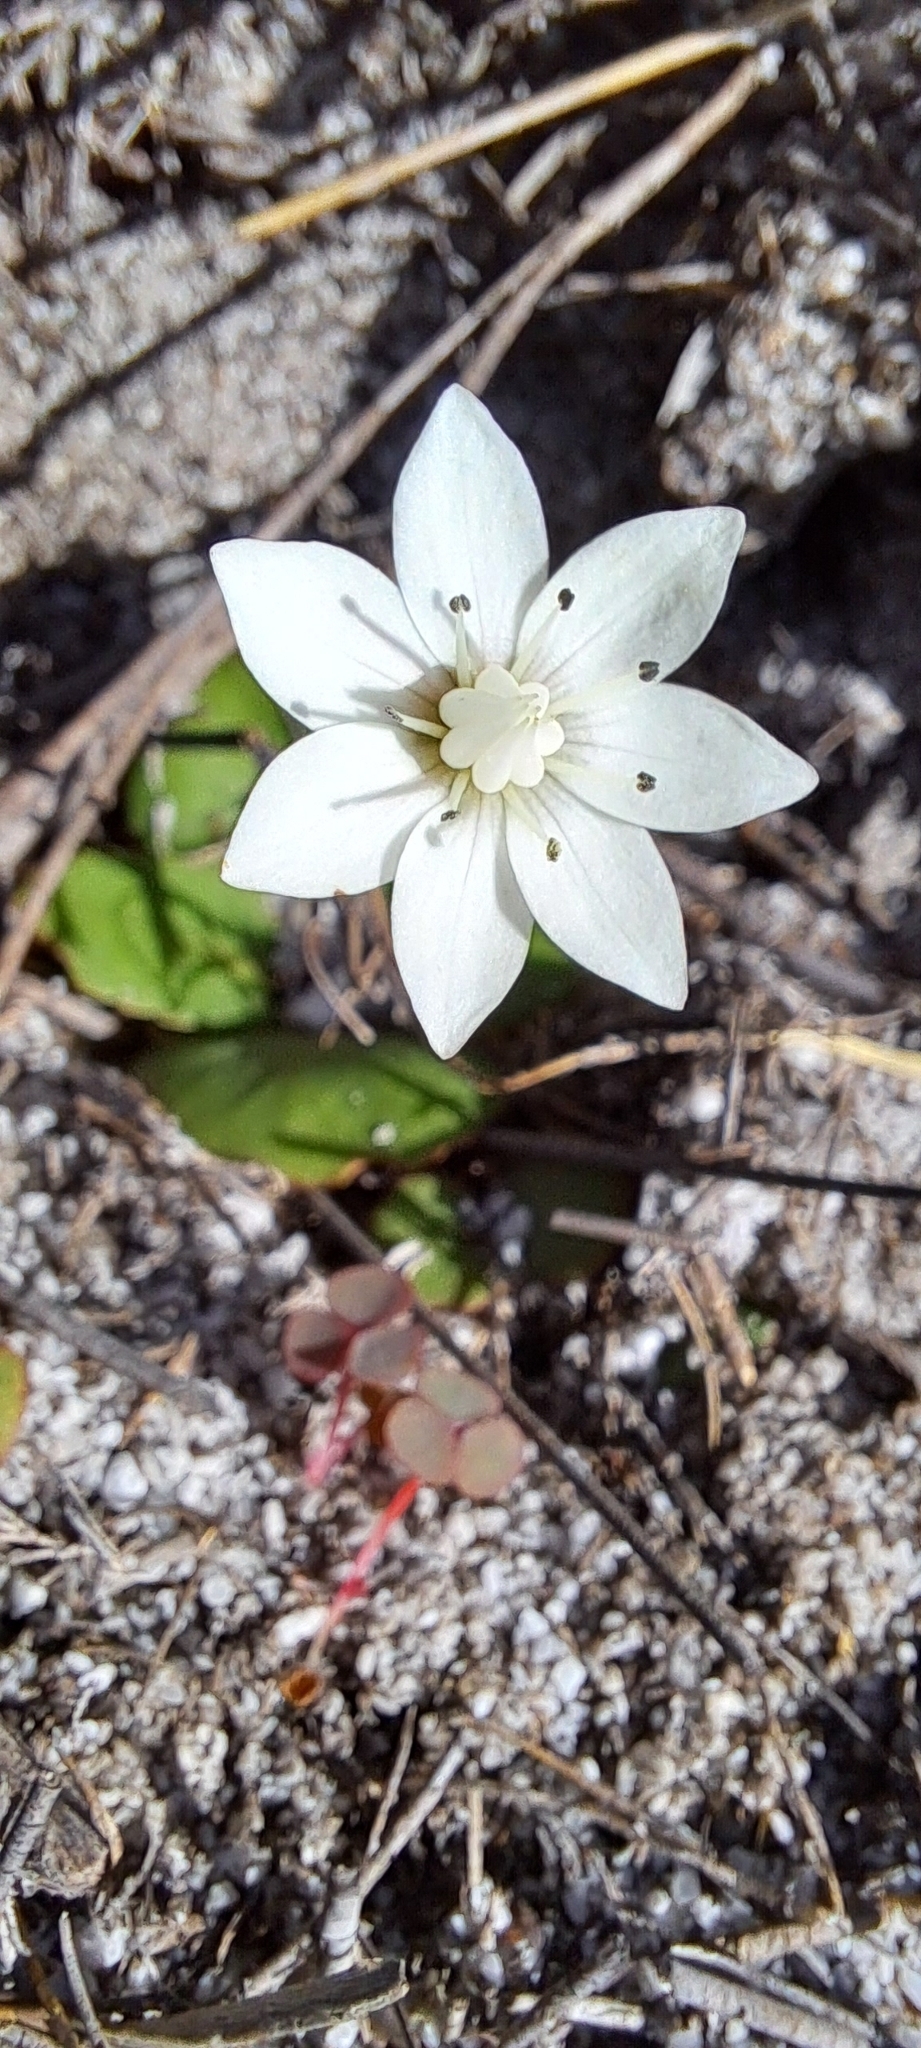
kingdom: Plantae
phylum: Tracheophyta
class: Magnoliopsida
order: Saxifragales
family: Crassulaceae
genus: Crassula
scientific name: Crassula capensis
